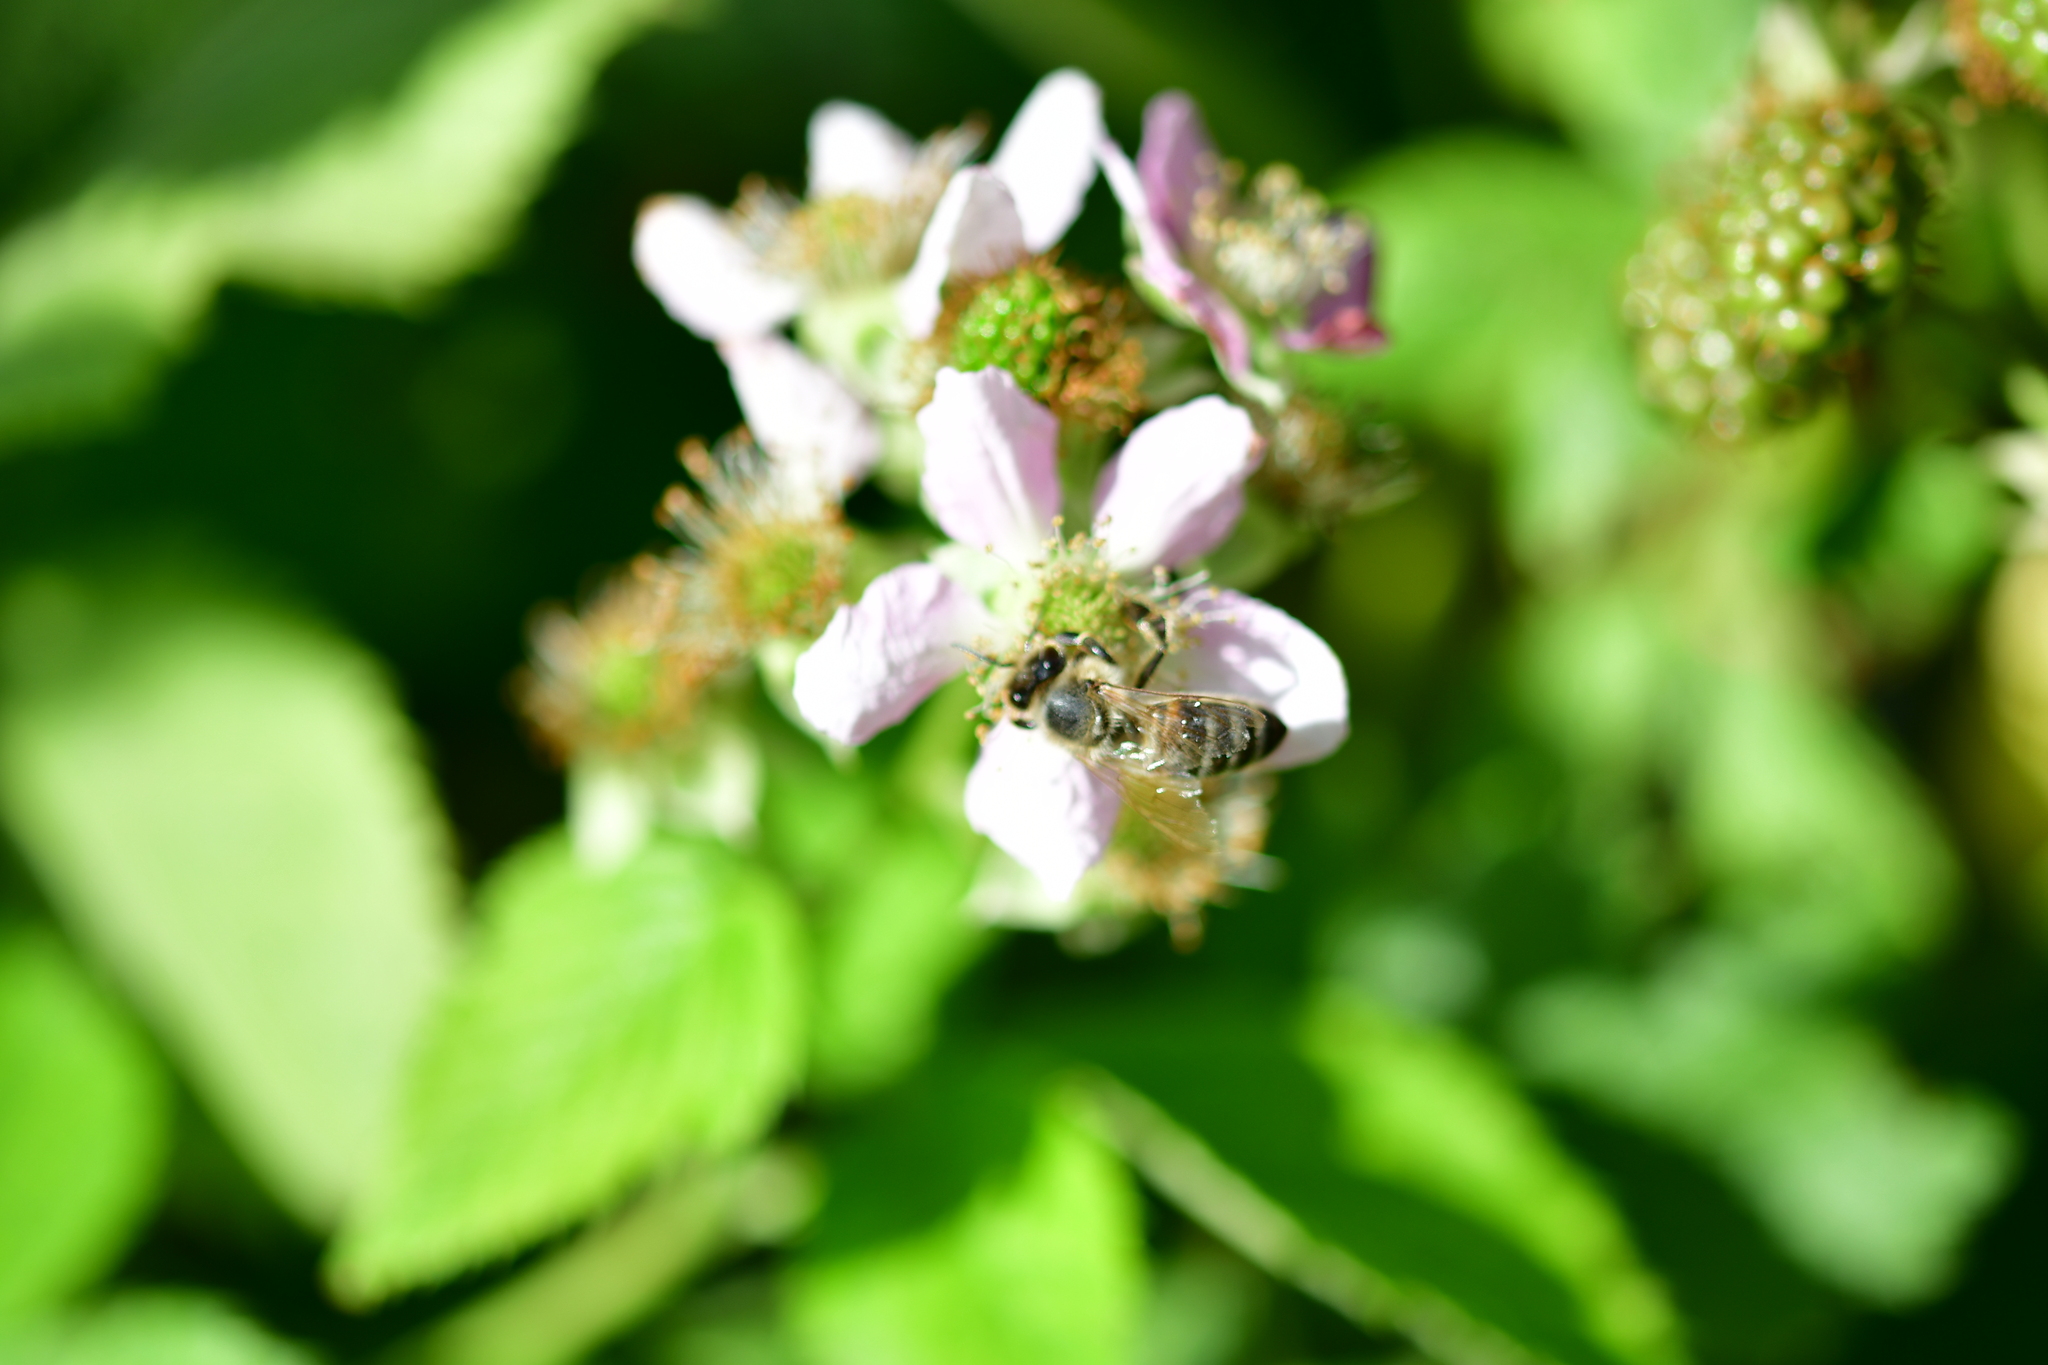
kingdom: Animalia
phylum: Arthropoda
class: Insecta
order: Hymenoptera
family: Apidae
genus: Apis
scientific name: Apis mellifera
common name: Honey bee
